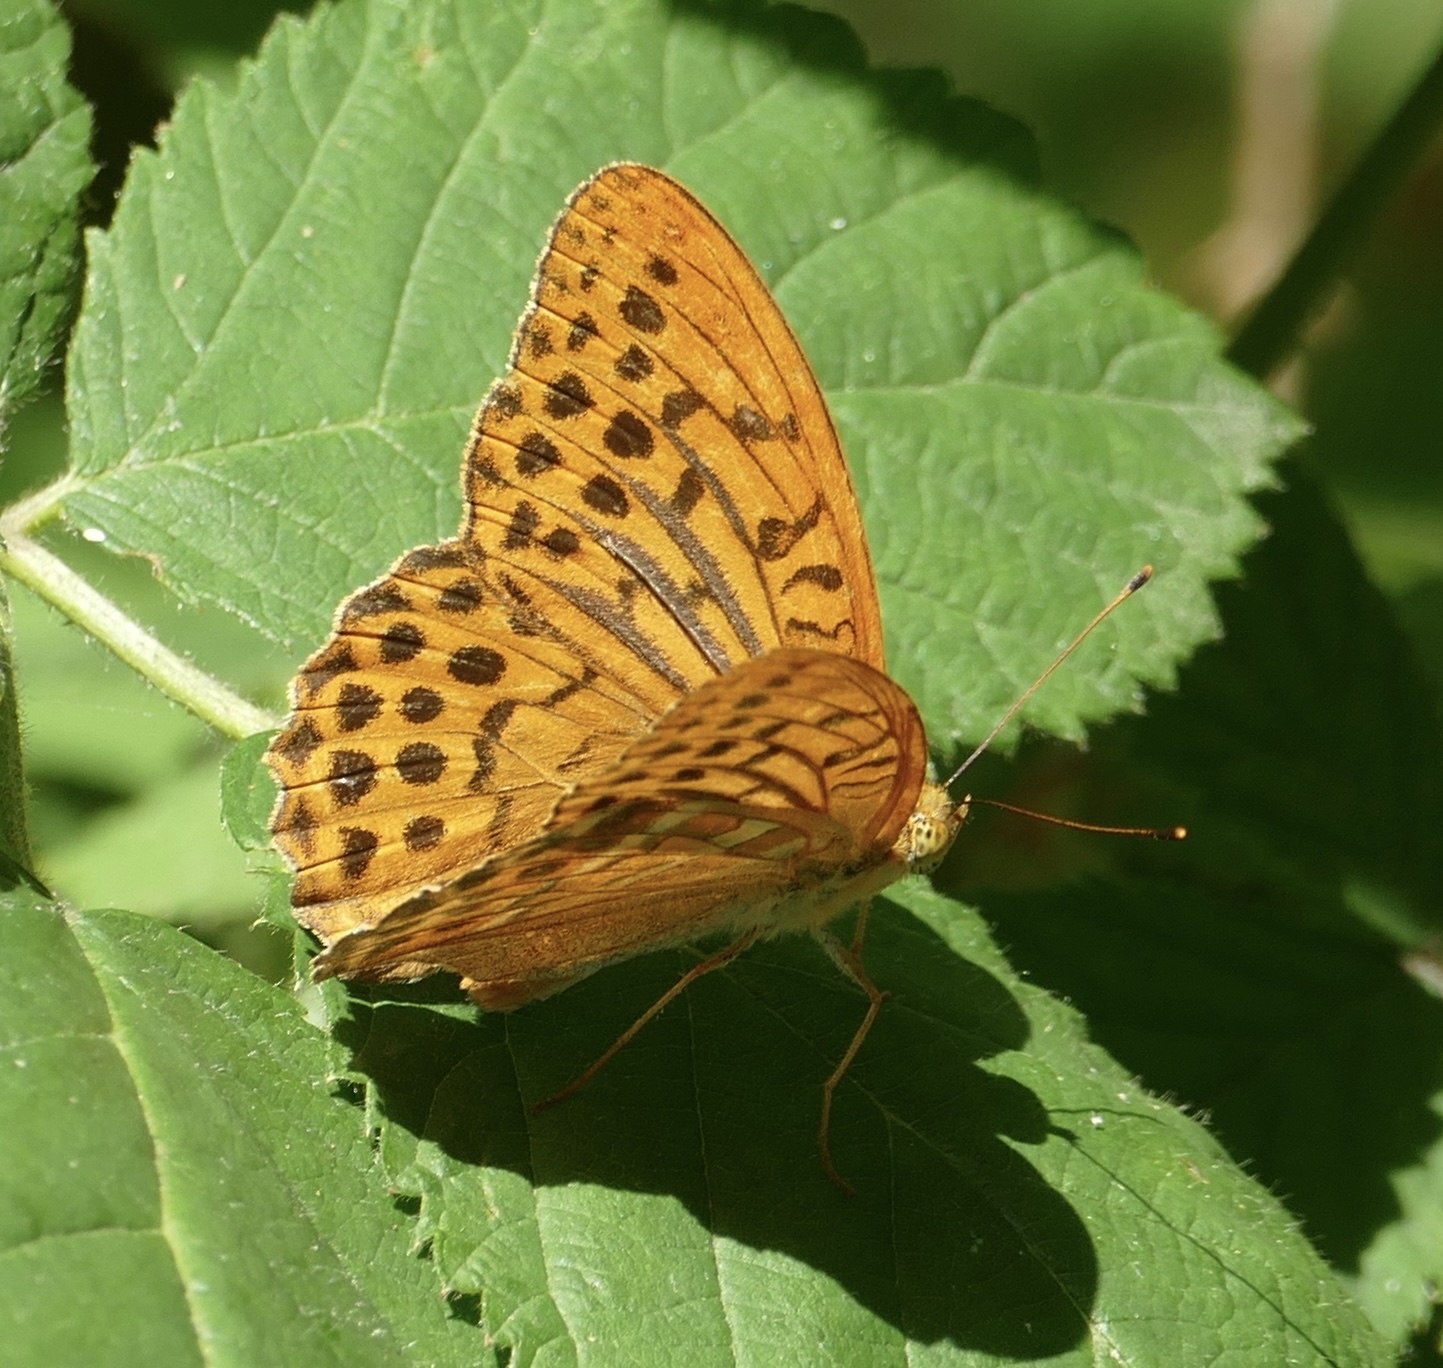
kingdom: Animalia
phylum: Arthropoda
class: Insecta
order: Lepidoptera
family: Nymphalidae
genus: Argynnis
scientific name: Argynnis paphia
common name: Silver-washed fritillary
